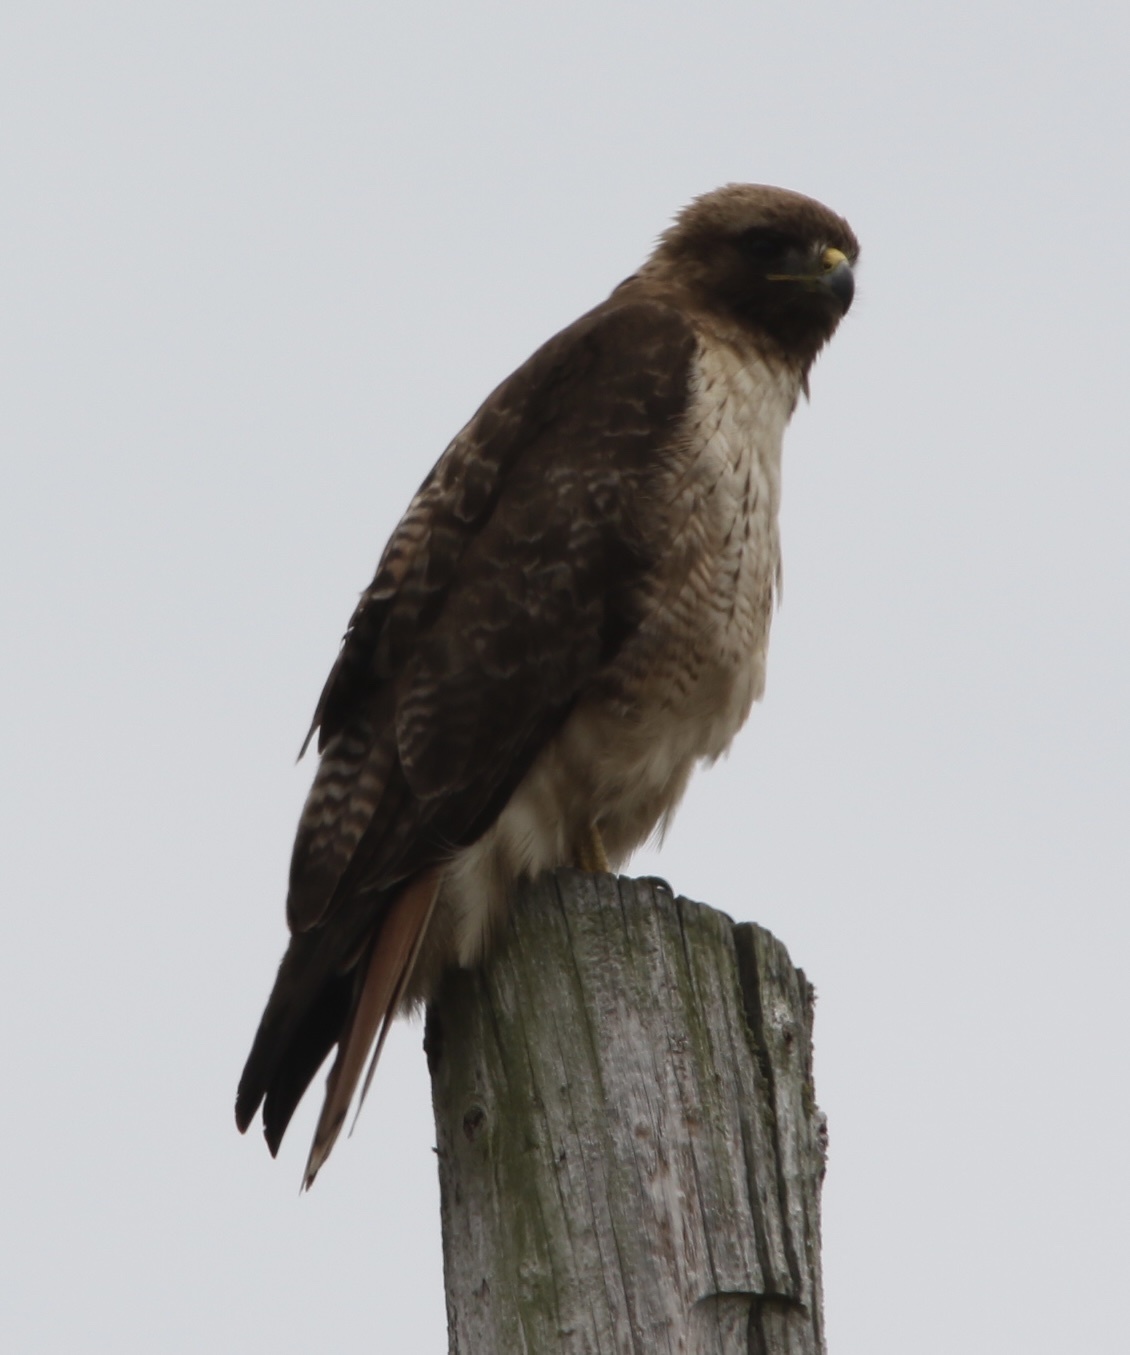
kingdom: Animalia
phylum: Chordata
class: Aves
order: Accipitriformes
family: Accipitridae
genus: Buteo
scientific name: Buteo jamaicensis
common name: Red-tailed hawk
